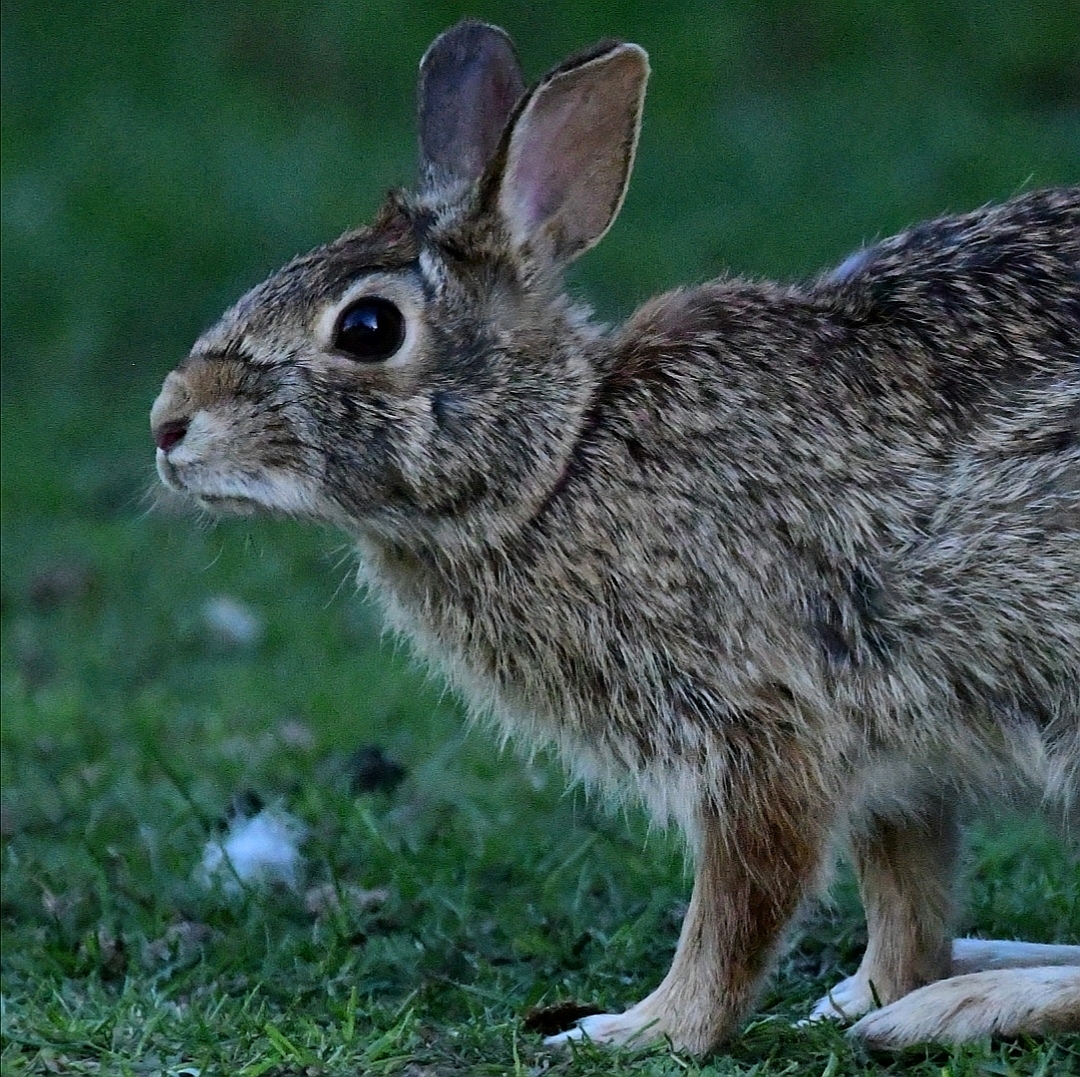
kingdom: Animalia
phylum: Chordata
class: Mammalia
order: Lagomorpha
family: Leporidae
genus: Sylvilagus
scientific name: Sylvilagus floridanus
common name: Eastern cottontail
